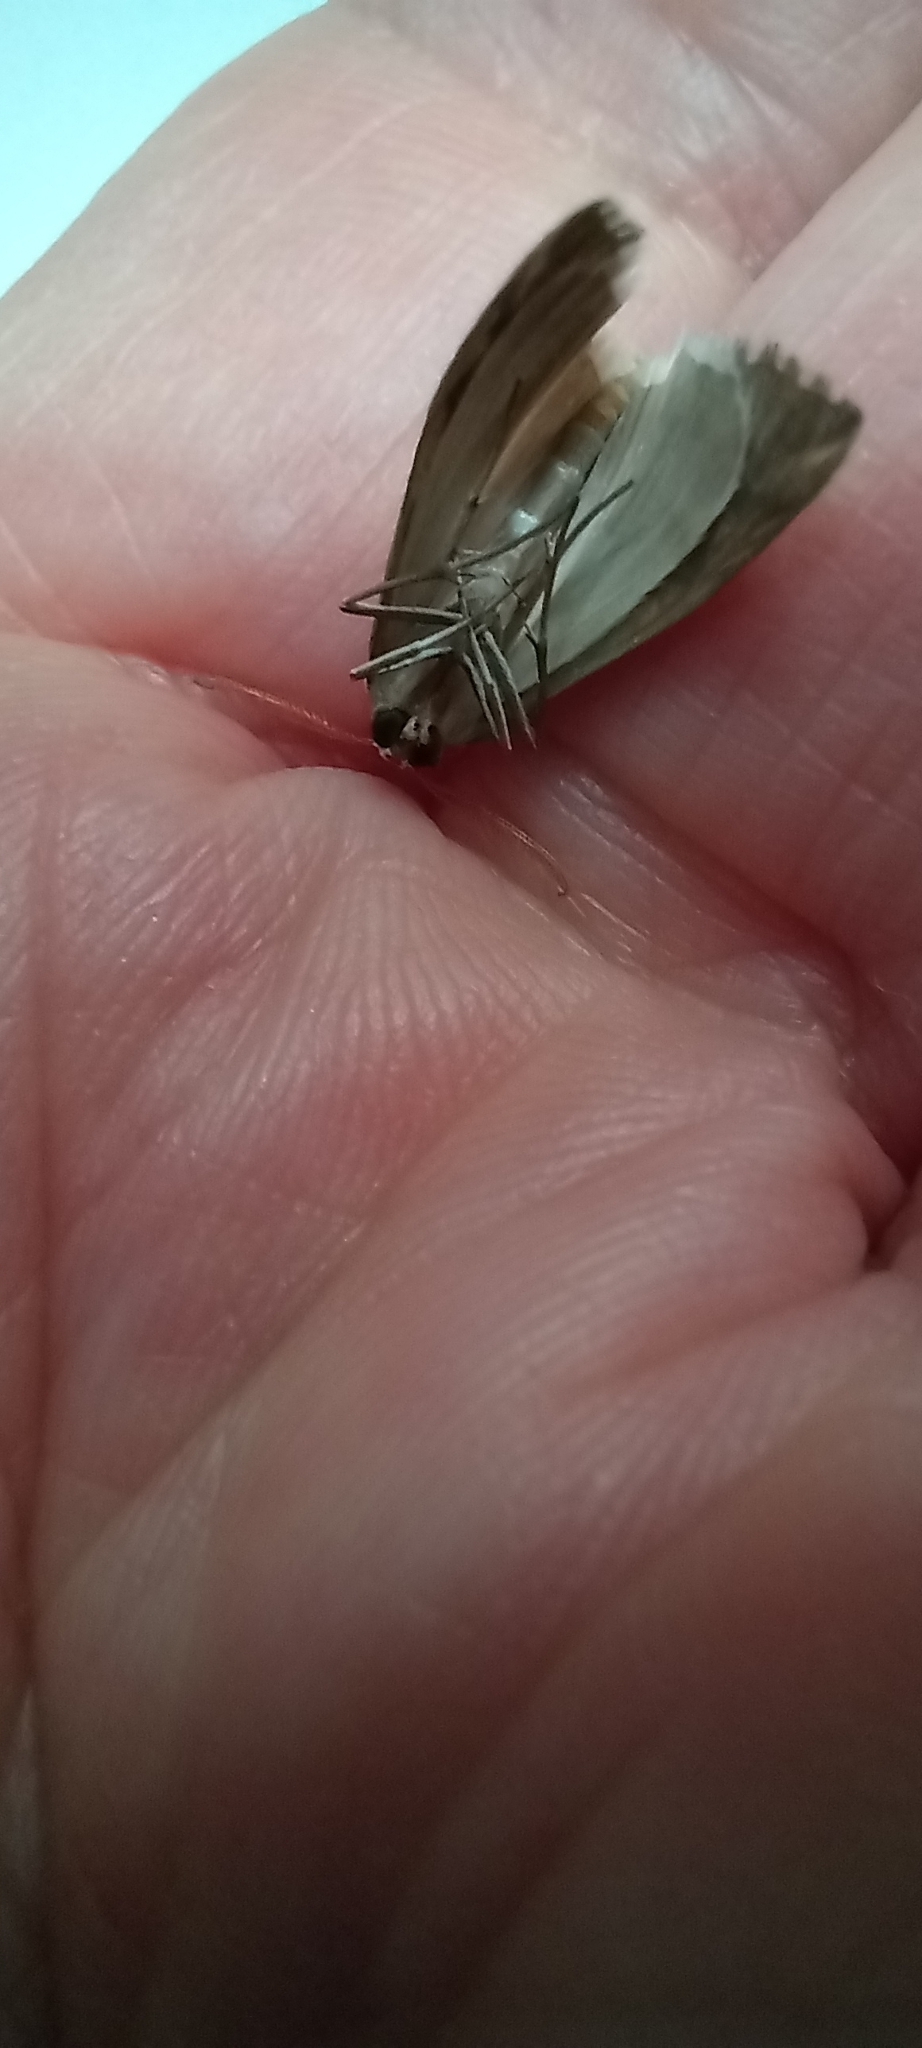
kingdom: Animalia
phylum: Arthropoda
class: Insecta
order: Lepidoptera
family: Geometridae
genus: Argyrophora
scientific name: Argyrophora trofonia
